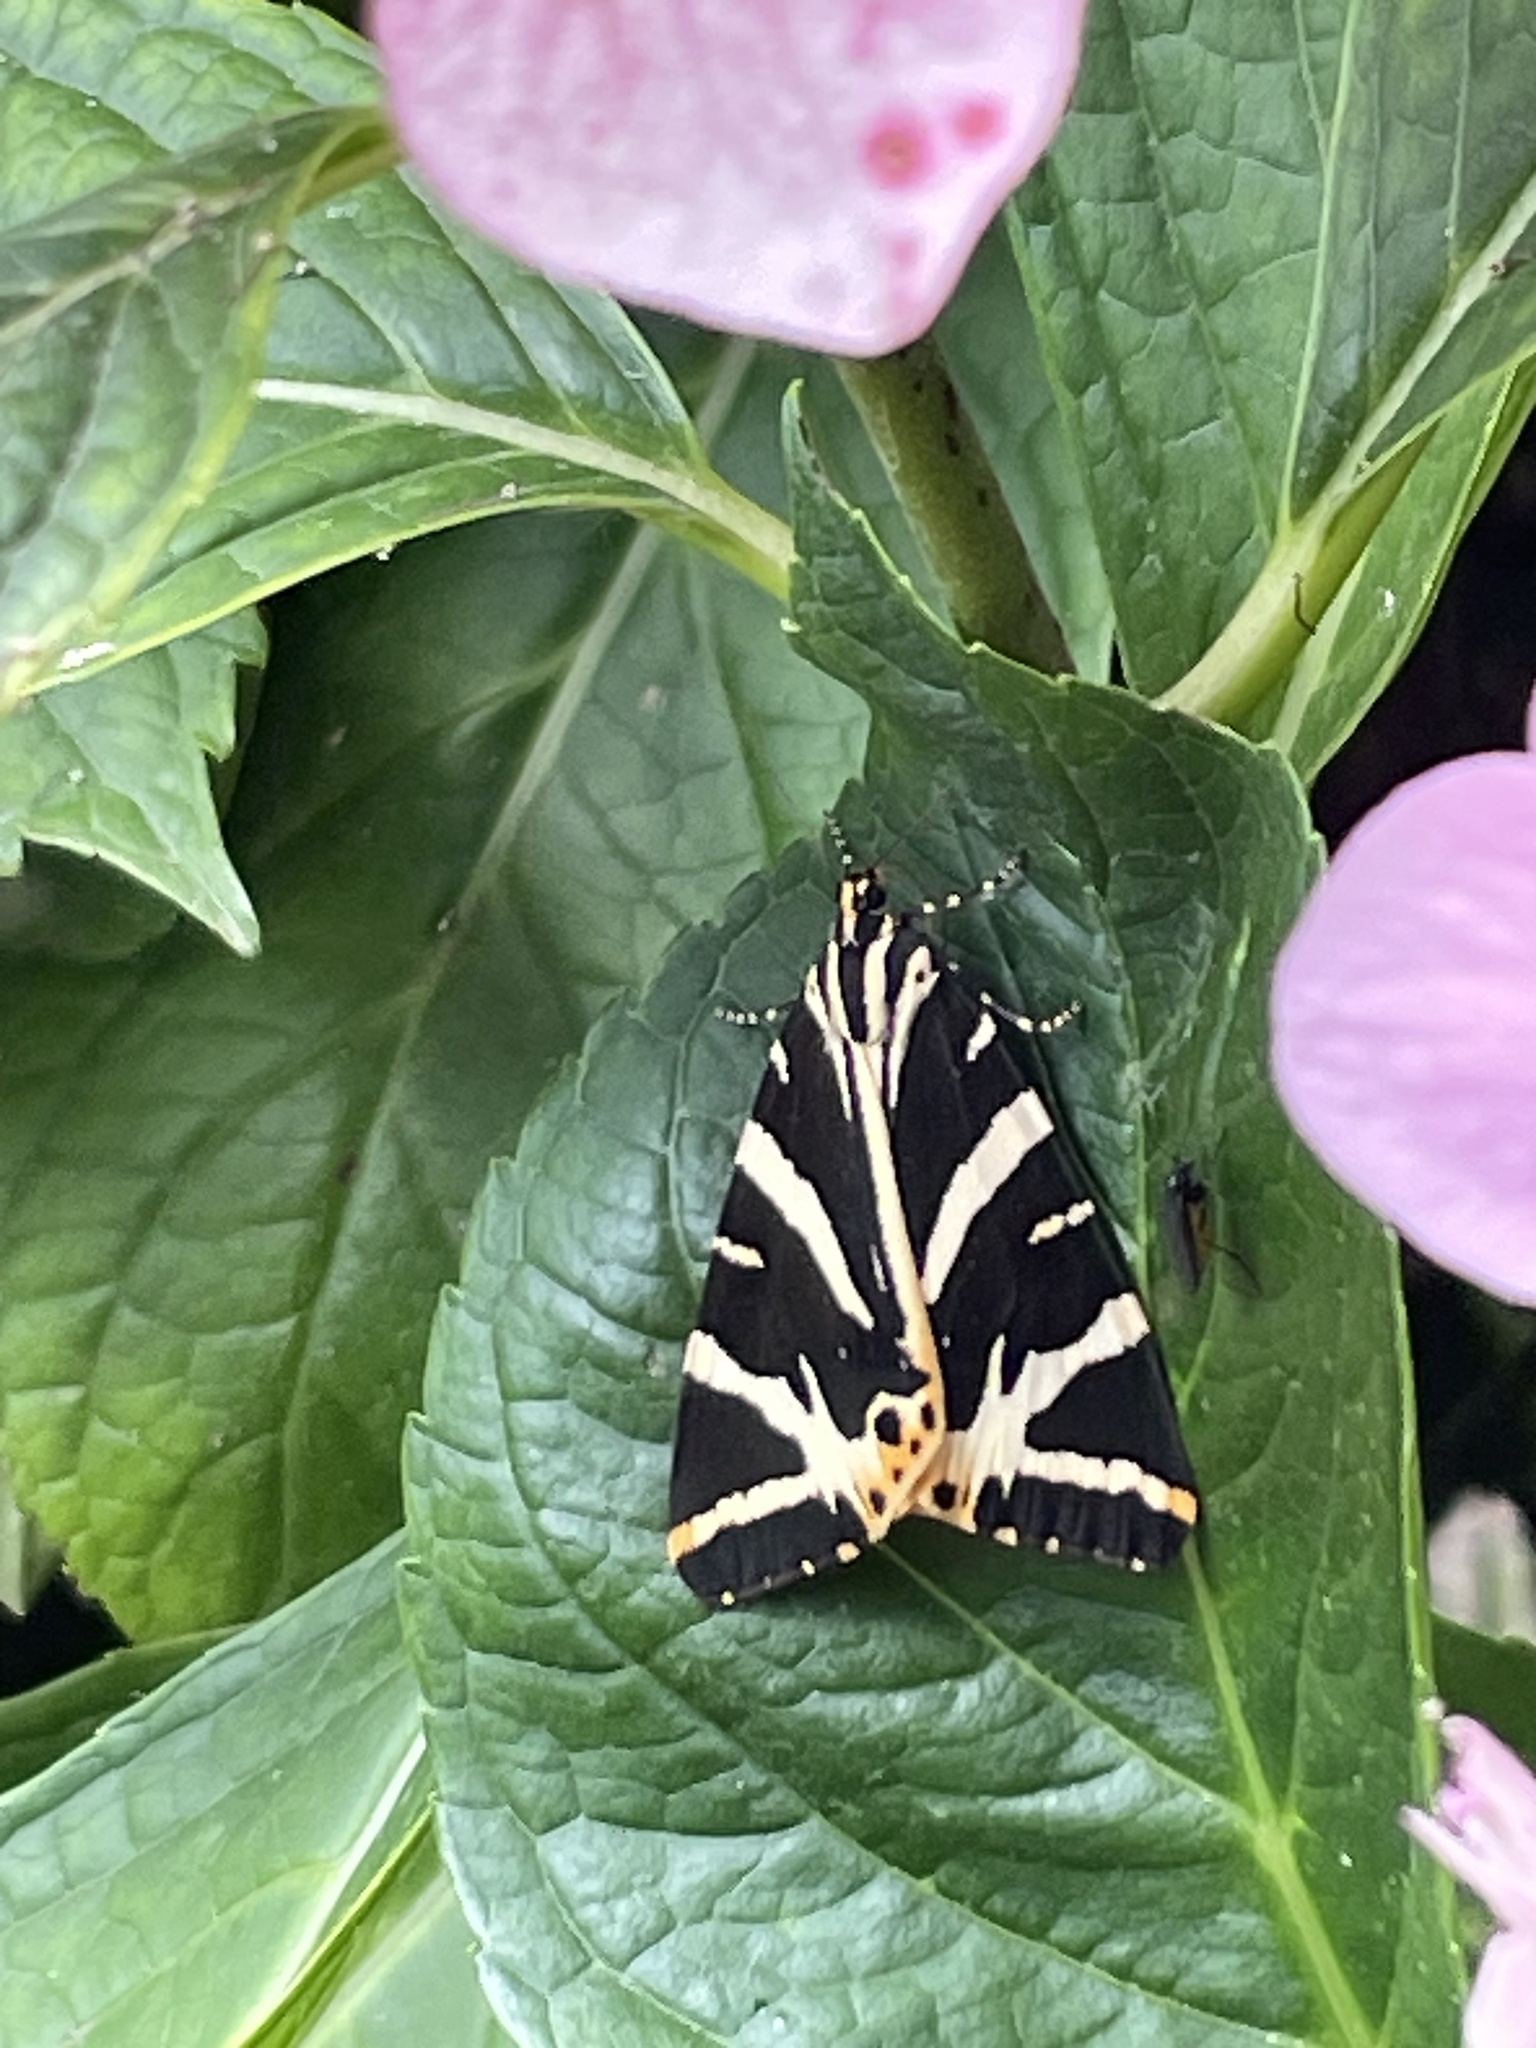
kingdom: Animalia
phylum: Arthropoda
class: Insecta
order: Lepidoptera
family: Erebidae
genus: Euplagia
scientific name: Euplagia quadripunctaria
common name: Jersey tiger
